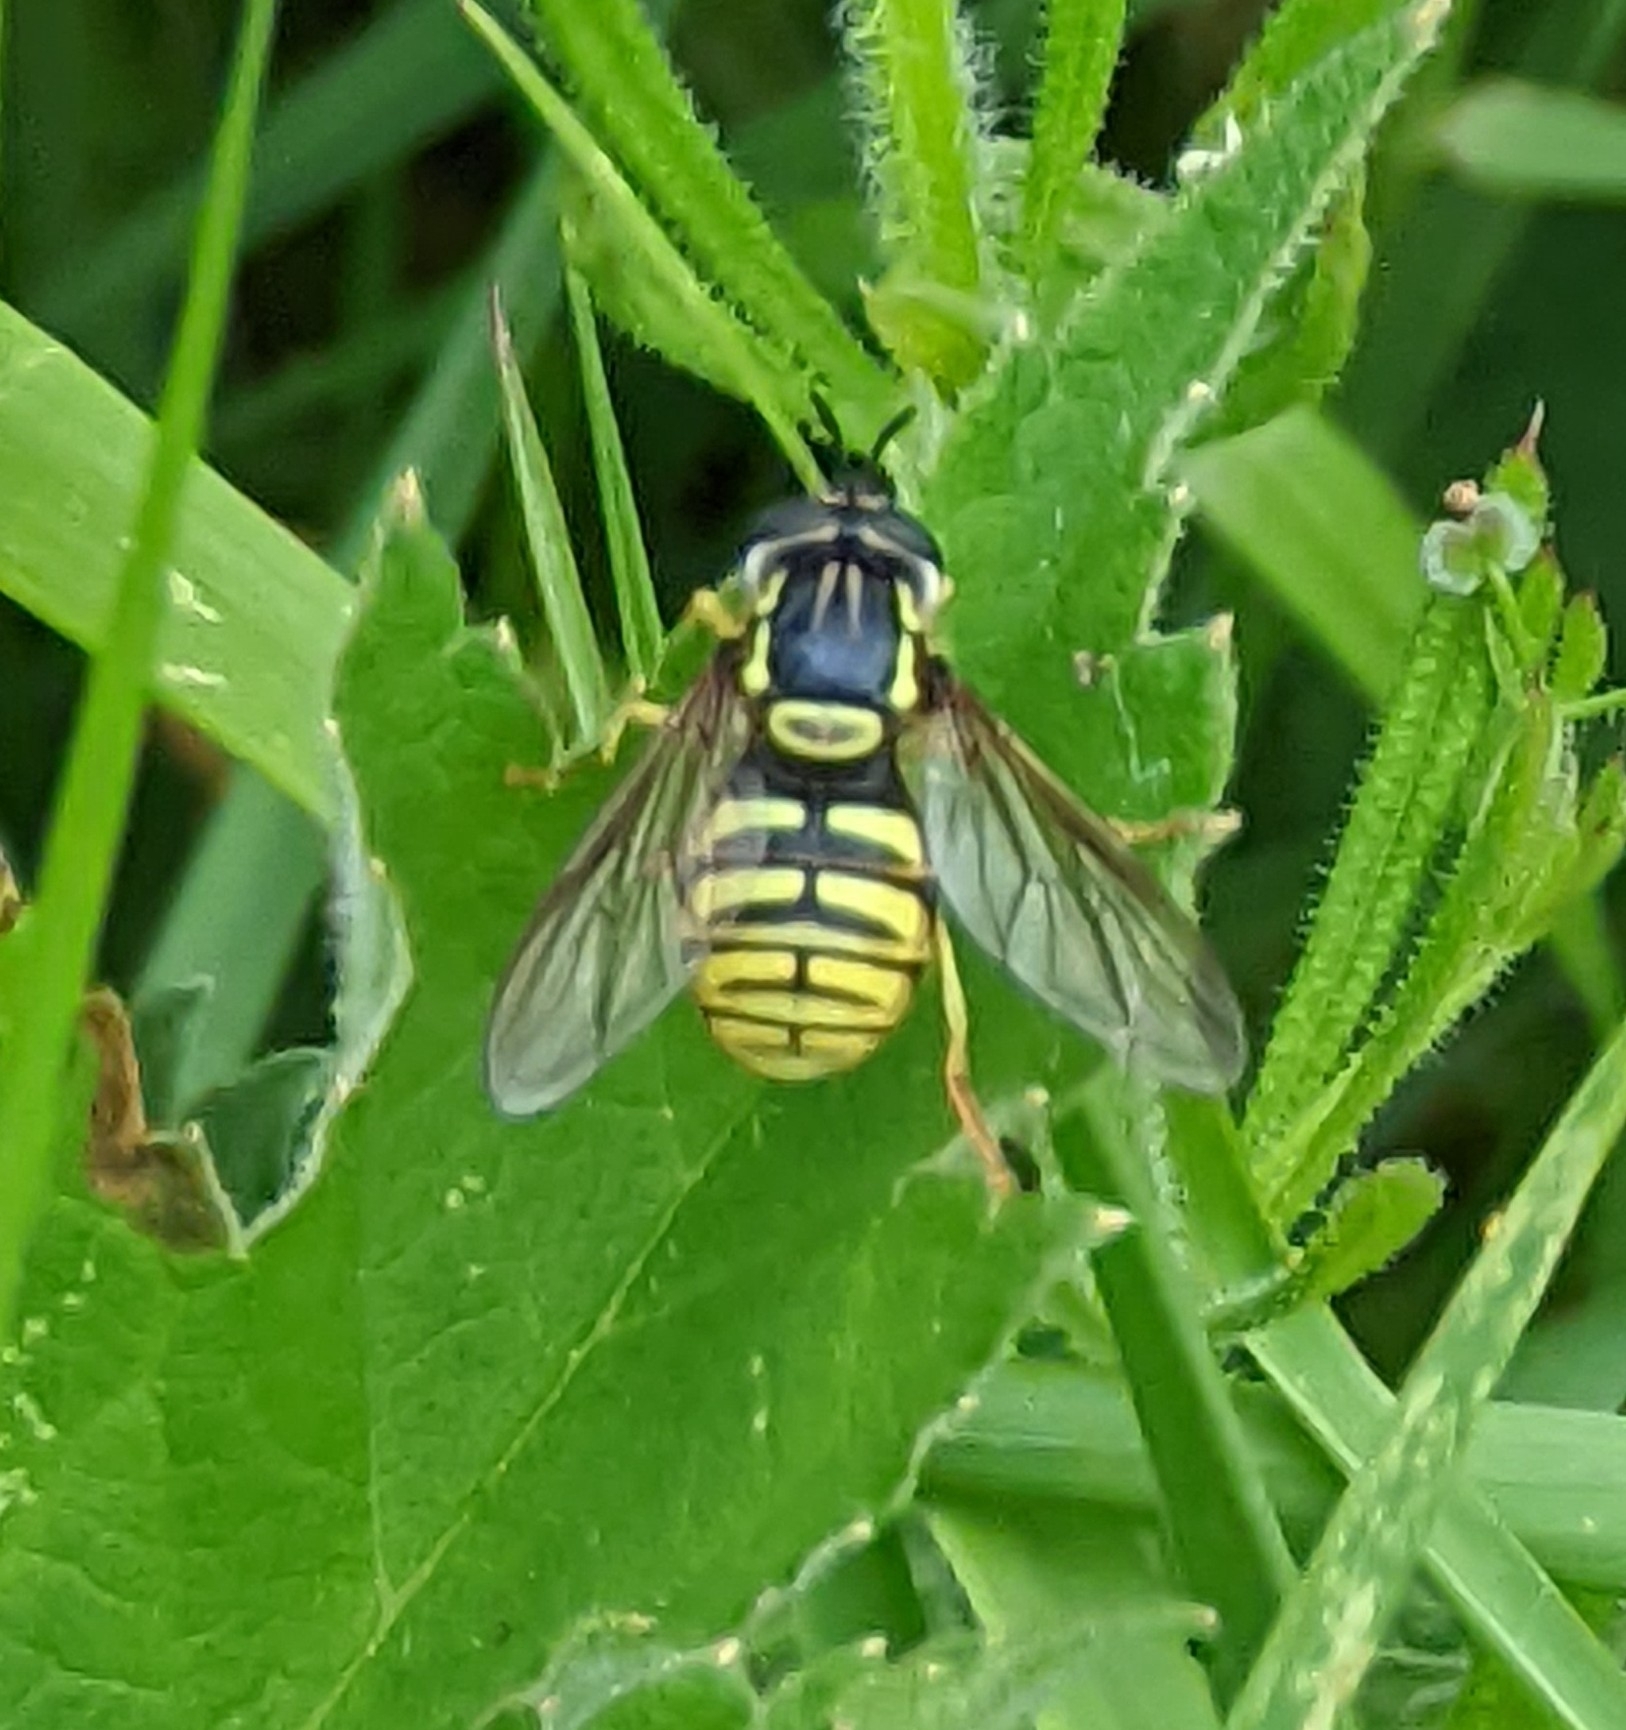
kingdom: Animalia
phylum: Arthropoda
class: Insecta
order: Diptera
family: Syrphidae
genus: Chrysotoxum
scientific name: Chrysotoxum cautum
